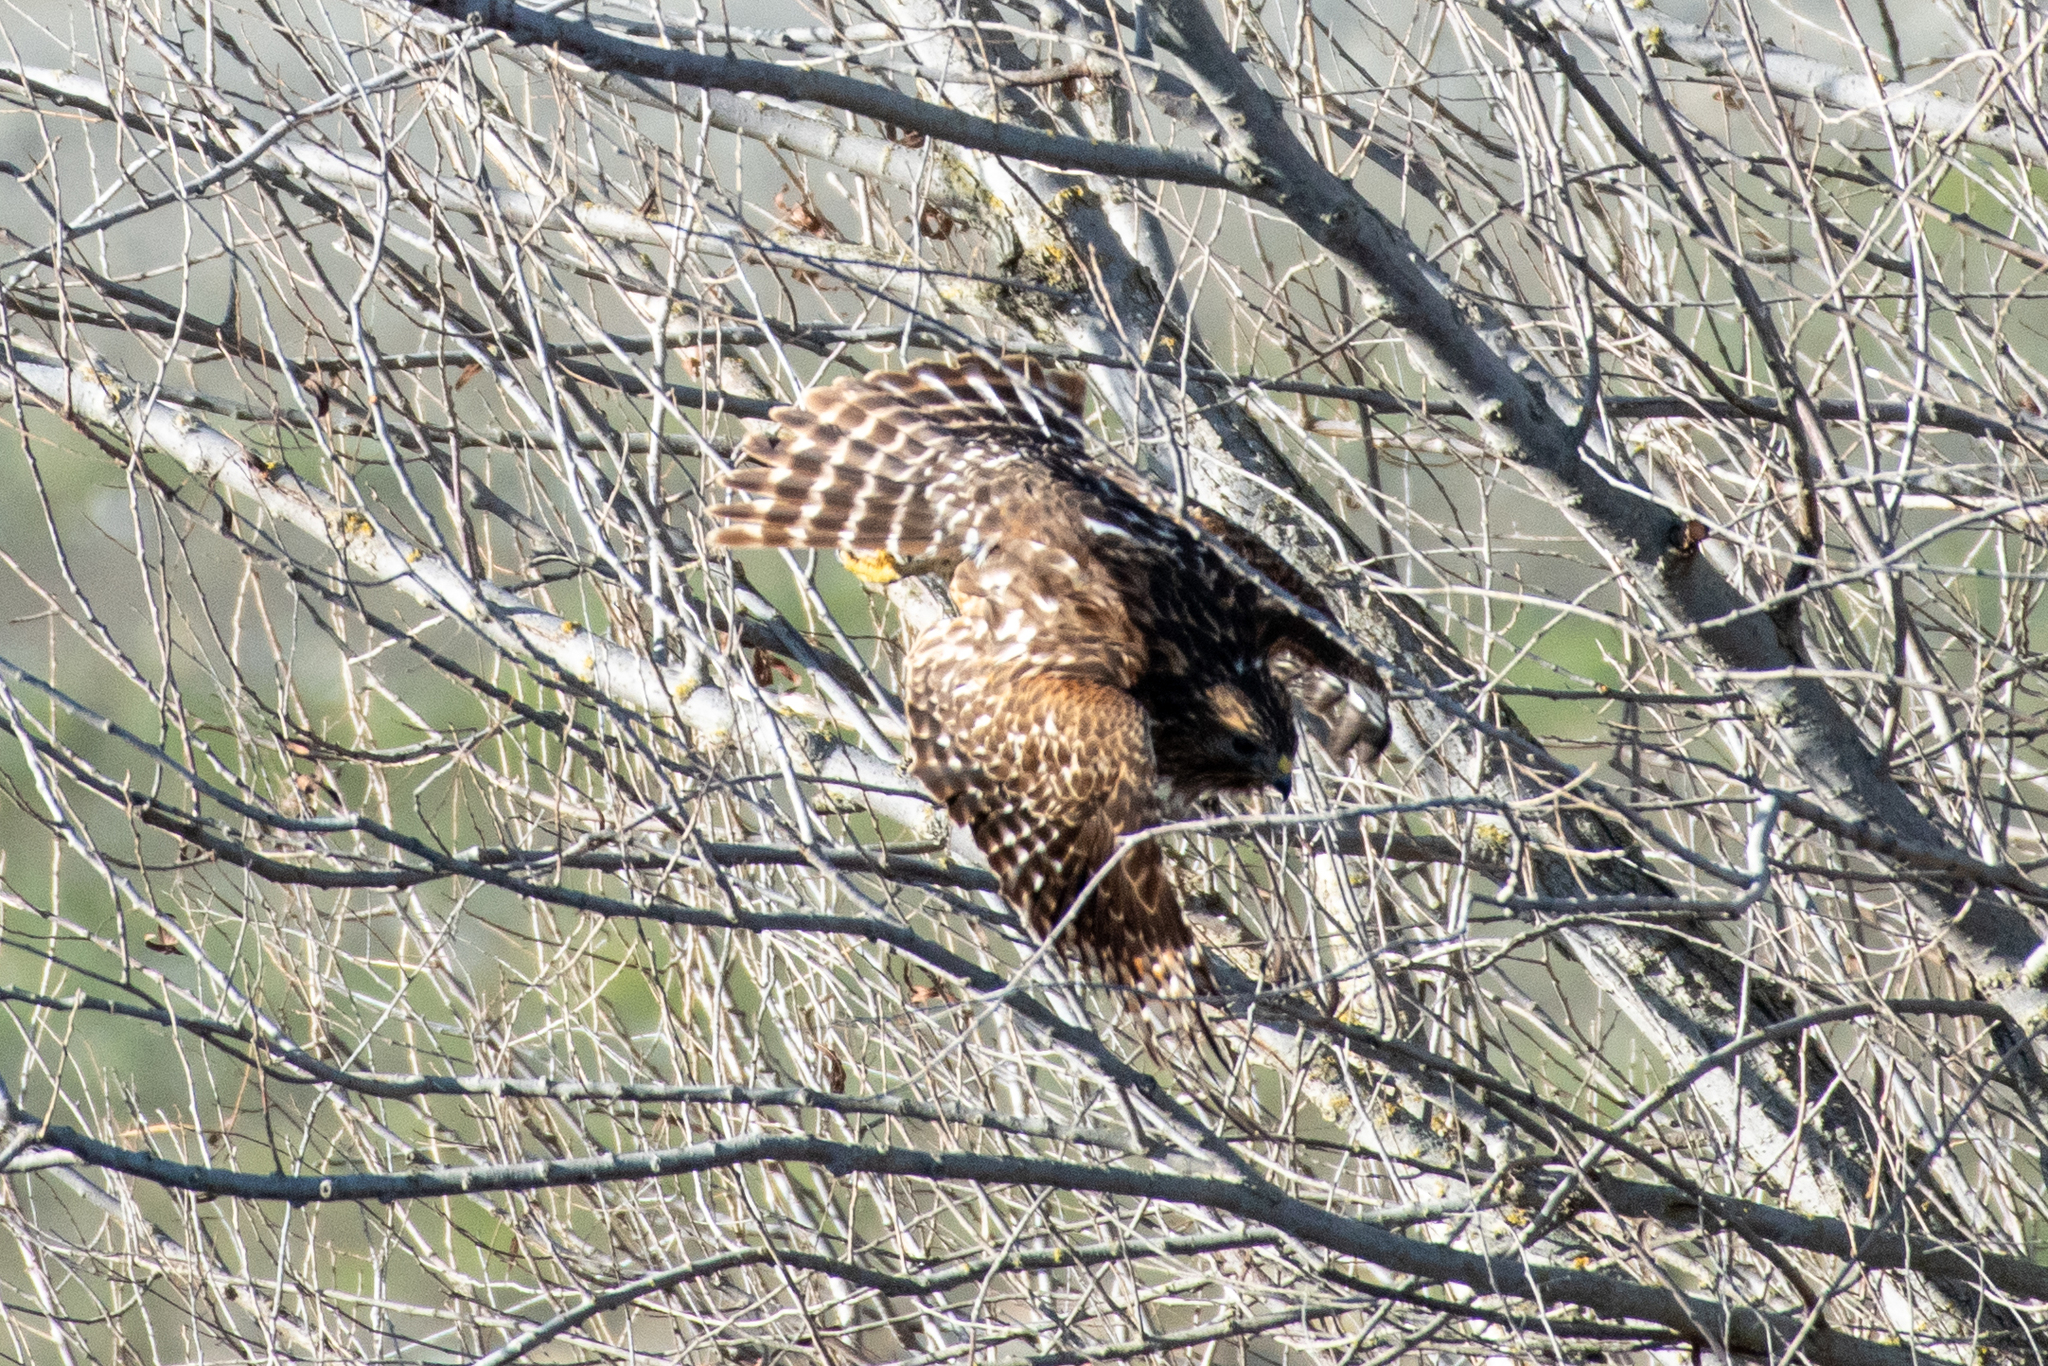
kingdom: Animalia
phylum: Chordata
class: Aves
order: Accipitriformes
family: Accipitridae
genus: Buteo
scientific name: Buteo lineatus
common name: Red-shouldered hawk
